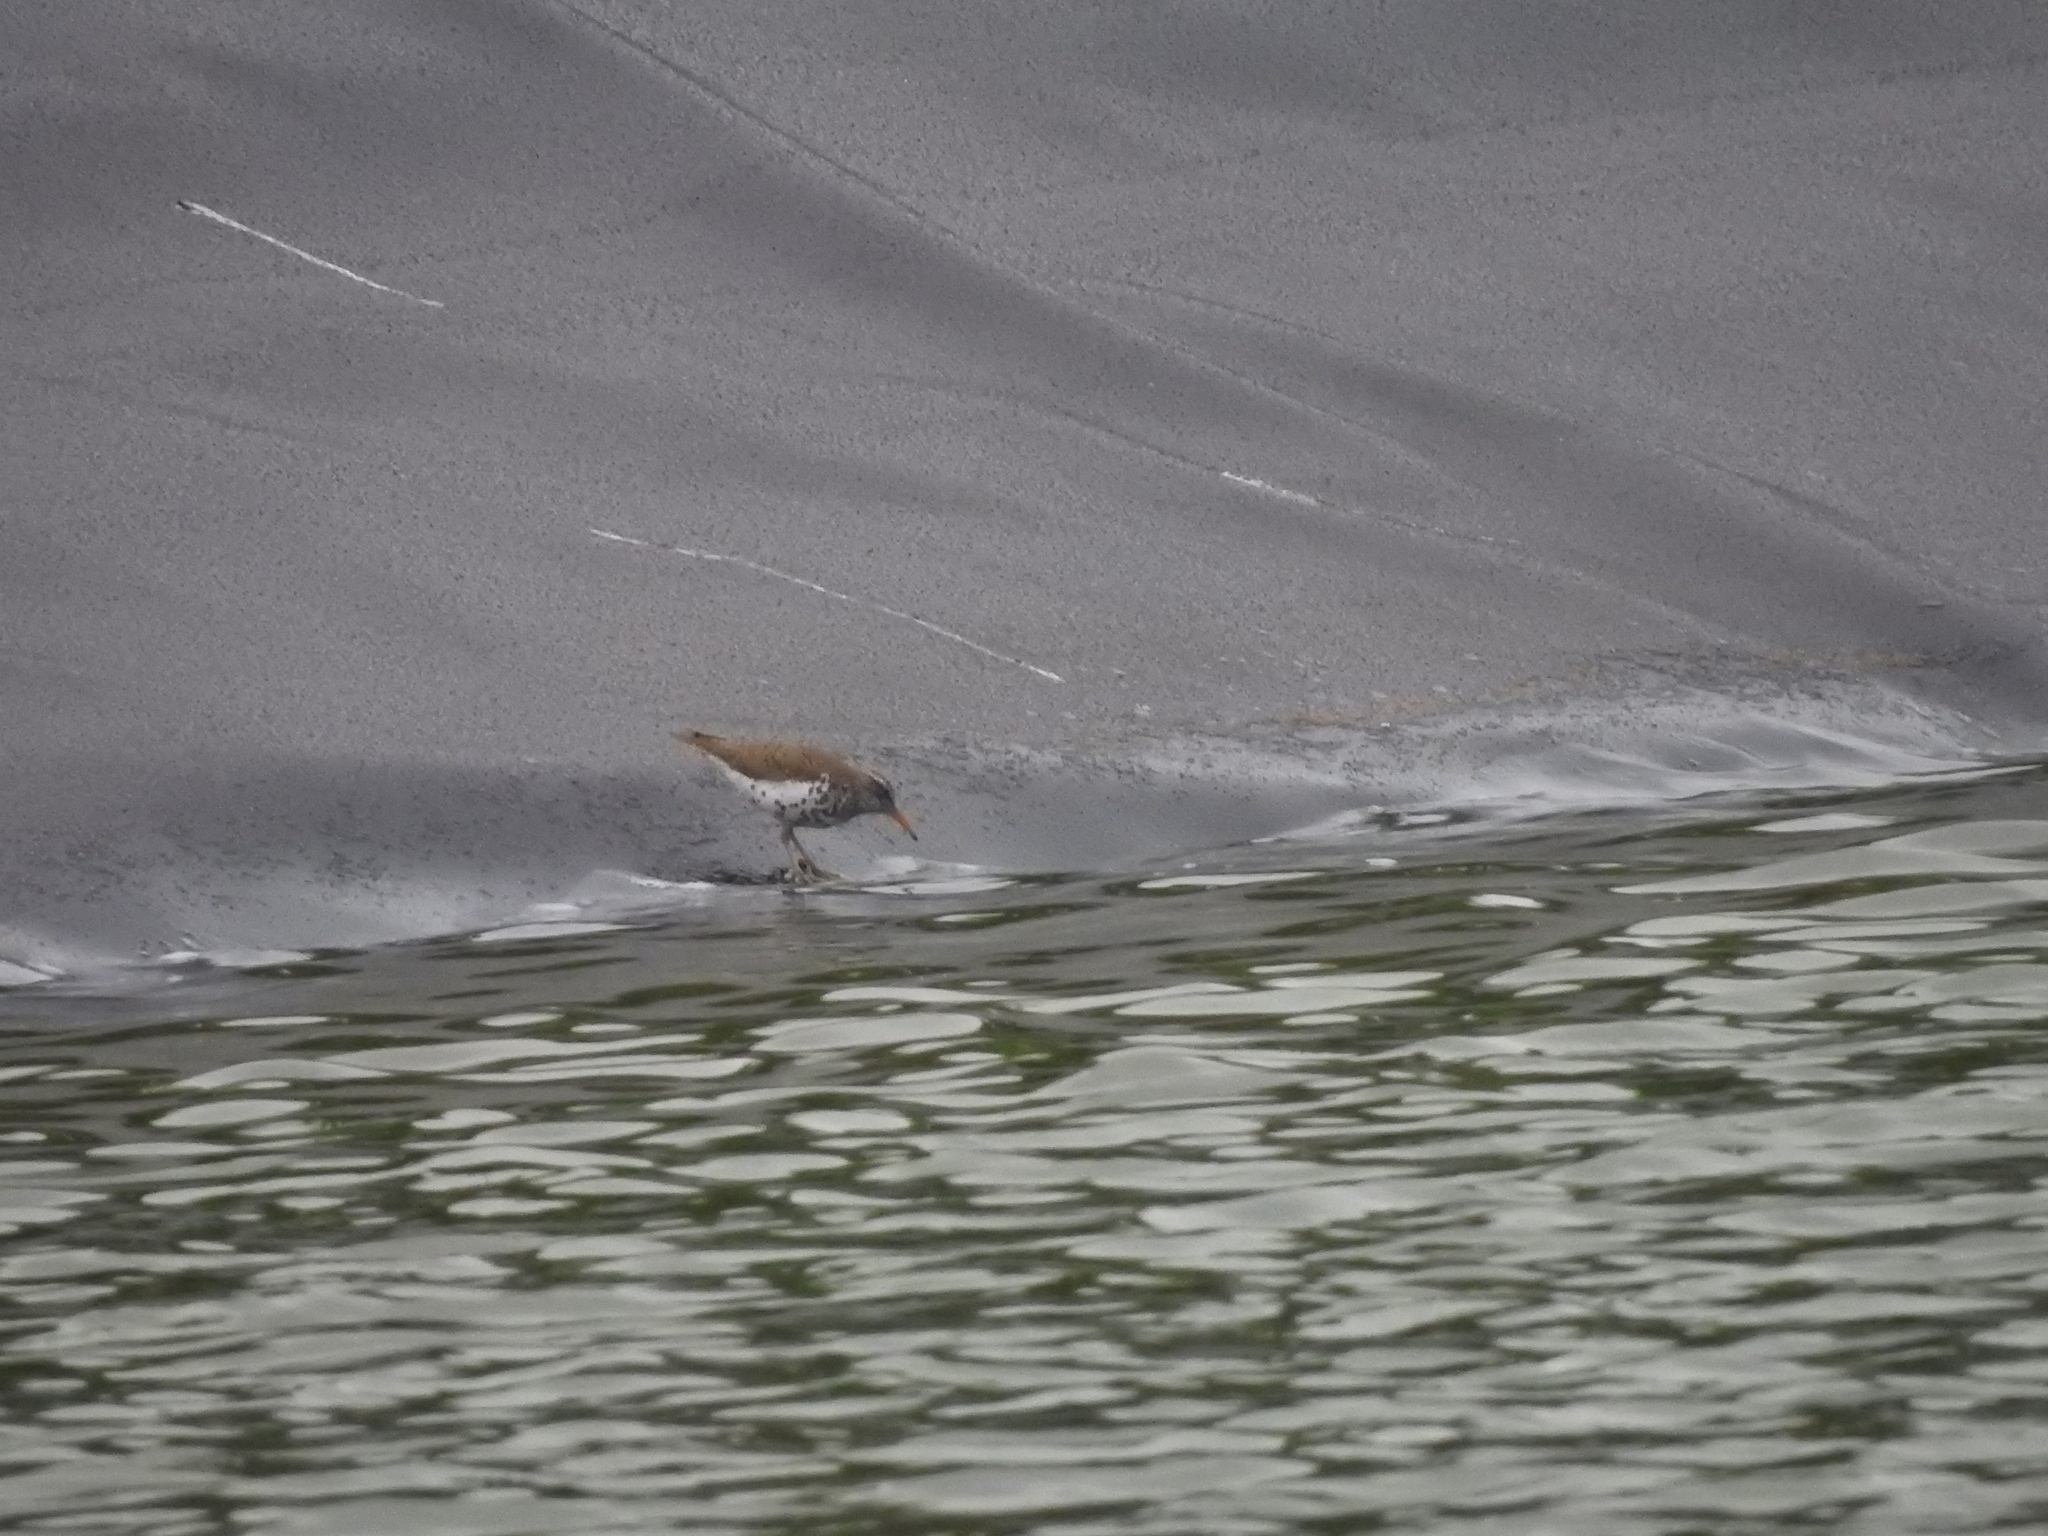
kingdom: Animalia
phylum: Chordata
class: Aves
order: Charadriiformes
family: Scolopacidae
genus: Actitis
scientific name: Actitis macularius
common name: Spotted sandpiper
